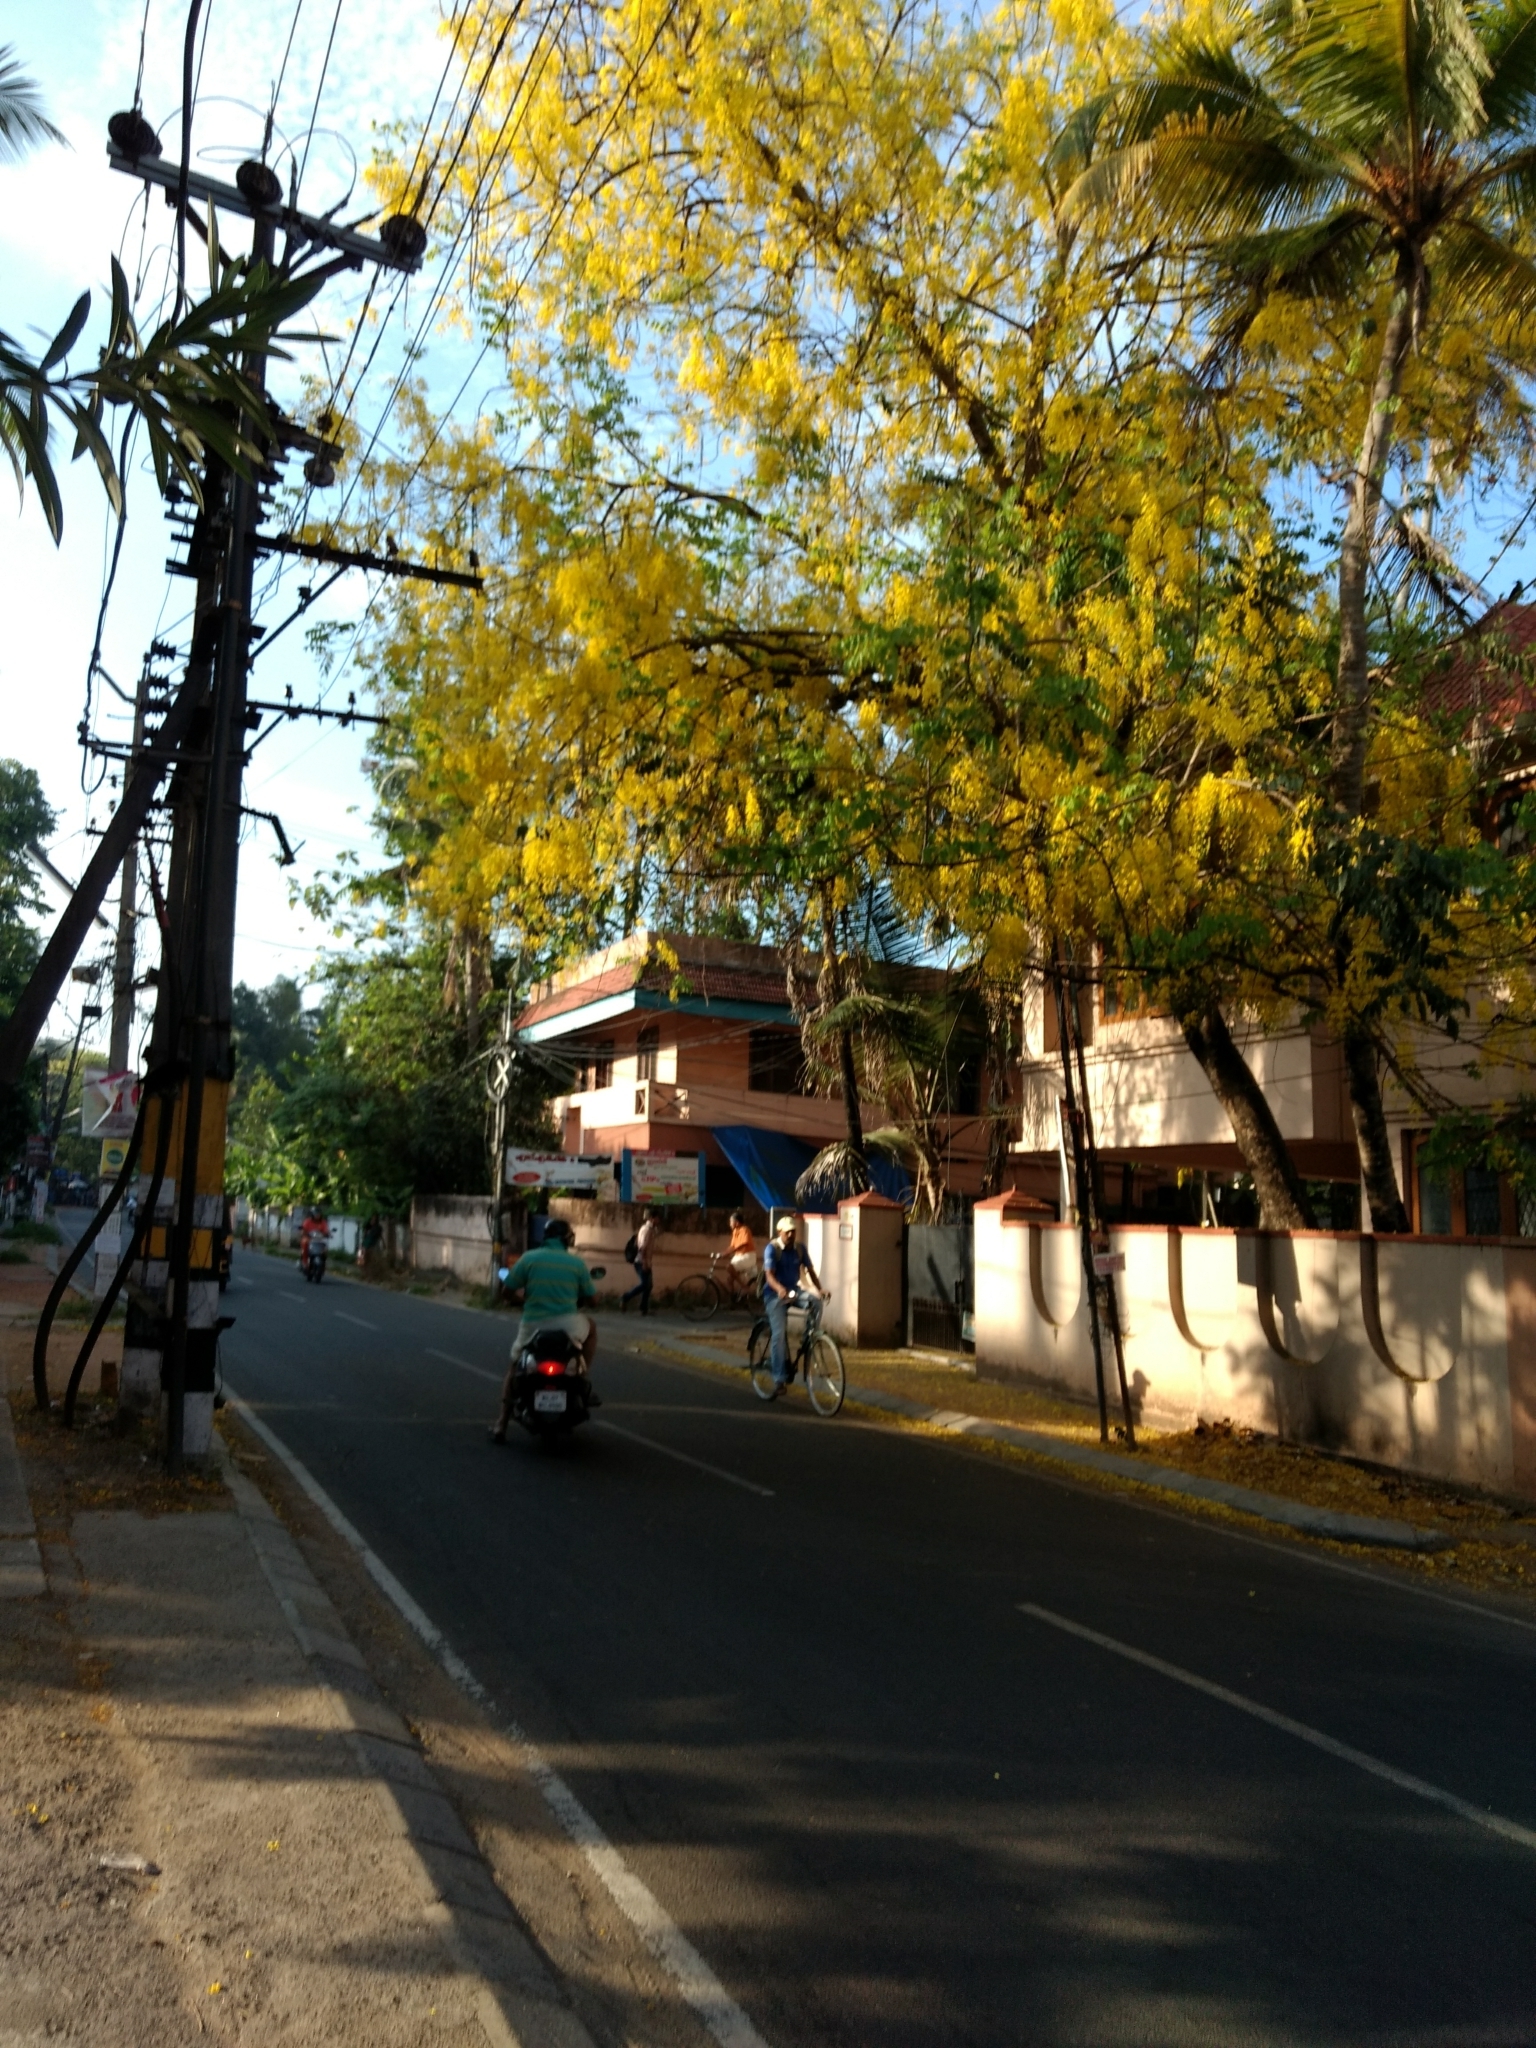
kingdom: Plantae
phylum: Tracheophyta
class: Magnoliopsida
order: Fabales
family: Fabaceae
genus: Cassia
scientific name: Cassia fistula
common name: Golden shower
